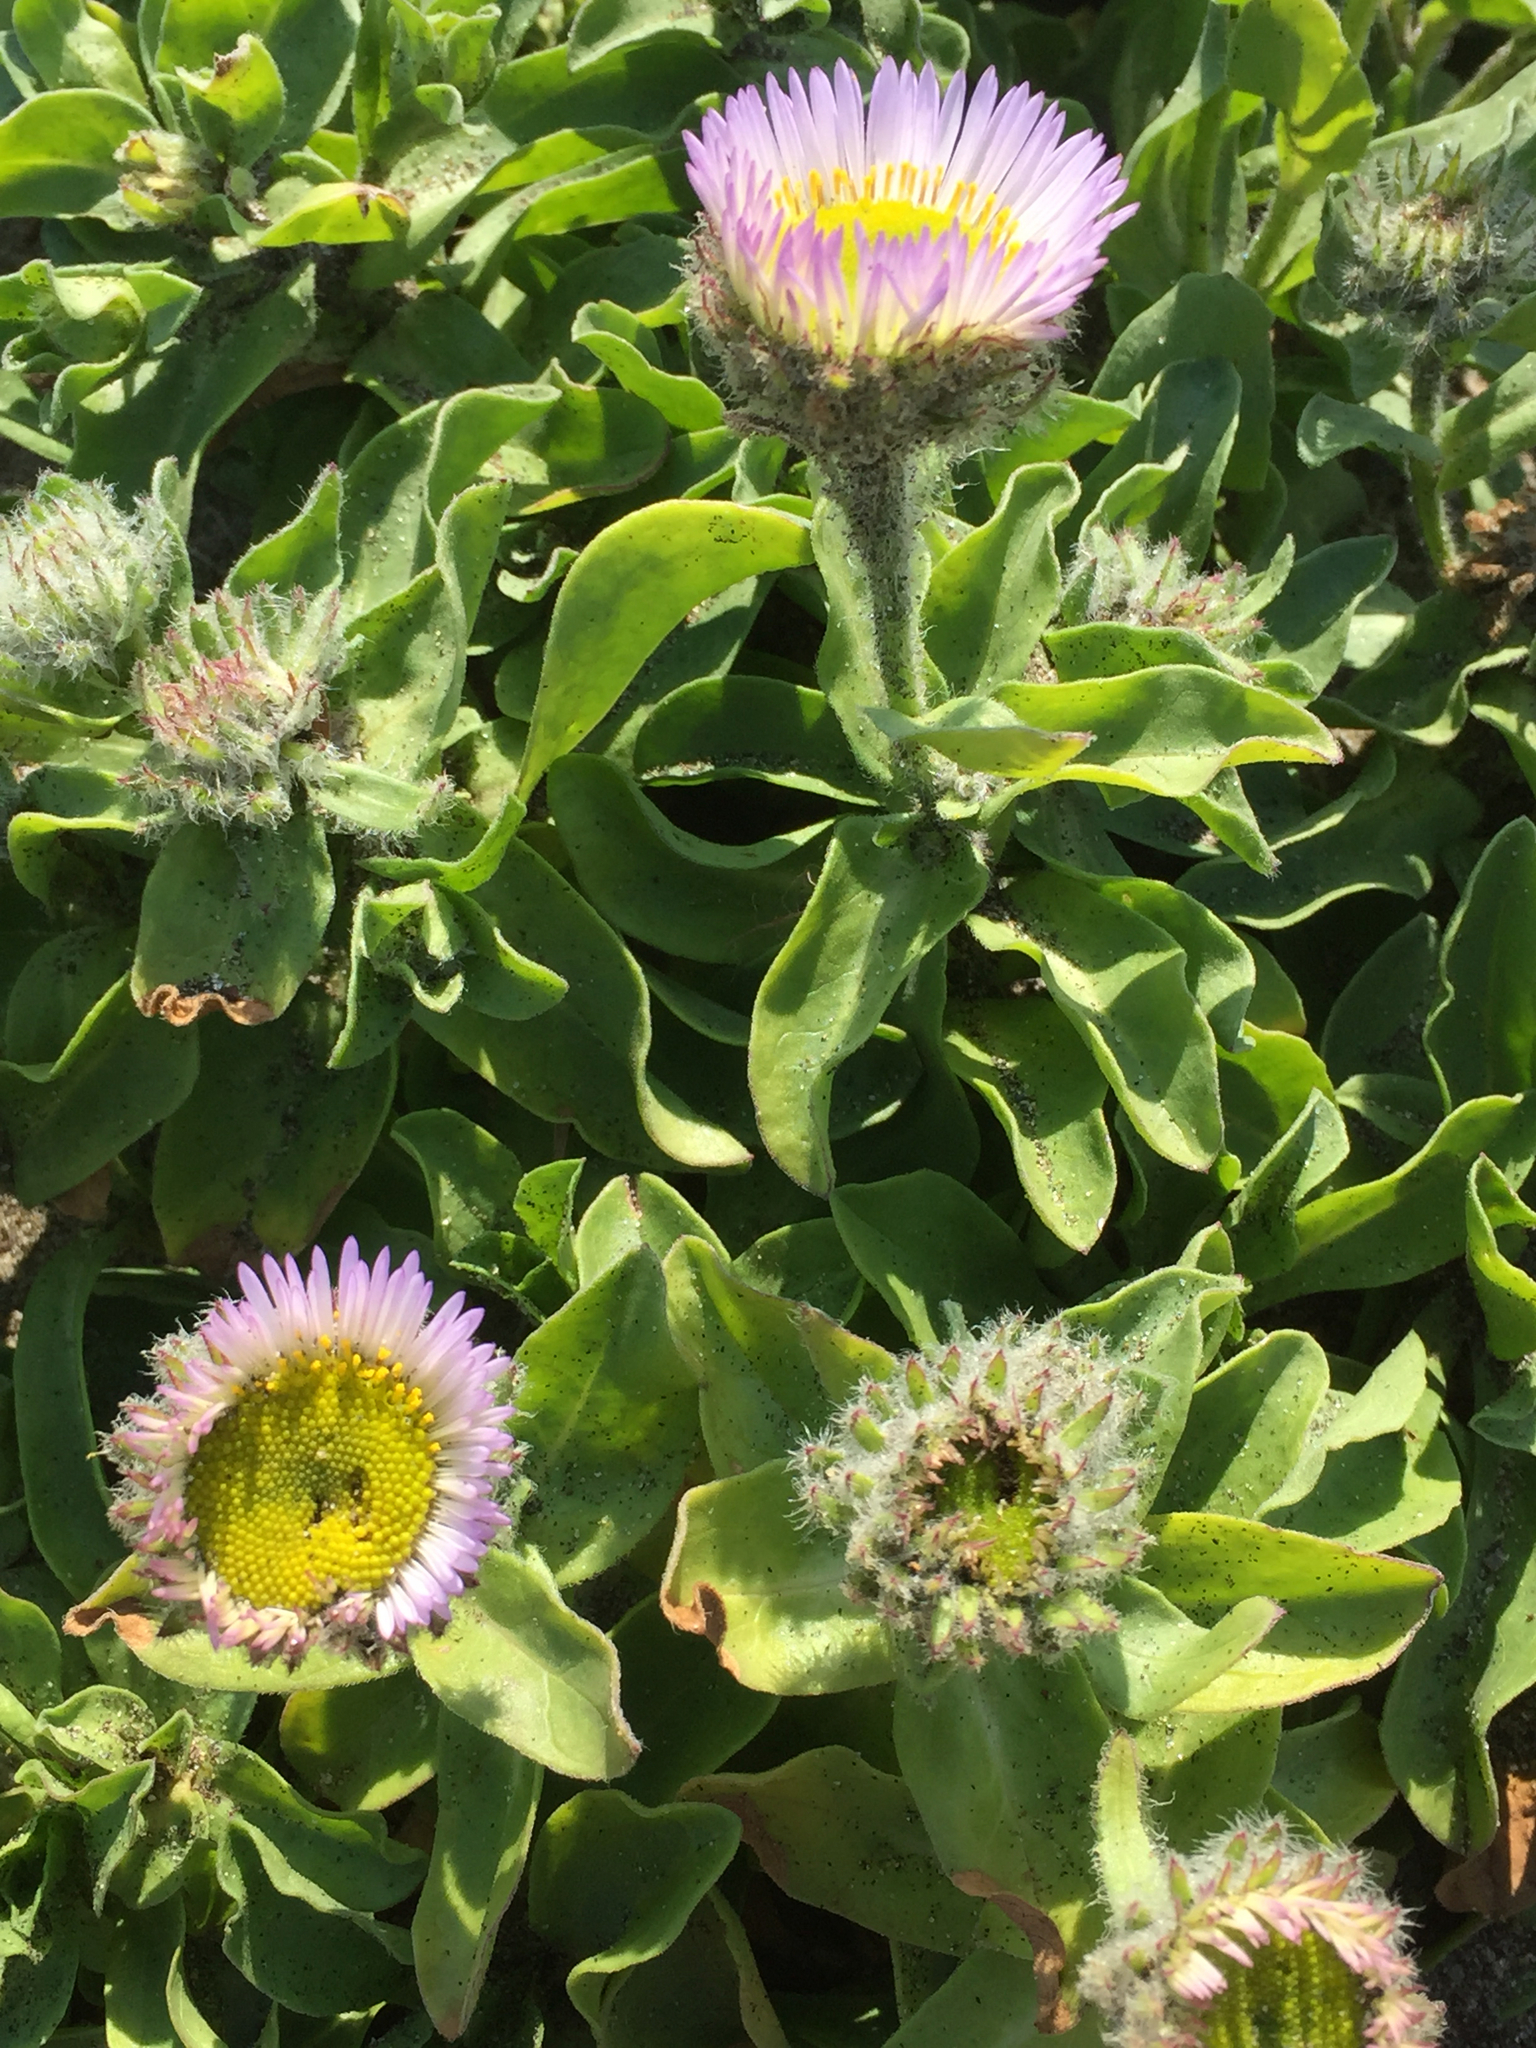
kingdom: Plantae
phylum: Tracheophyta
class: Magnoliopsida
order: Asterales
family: Asteraceae
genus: Erigeron
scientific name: Erigeron glaucus
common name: Seaside daisy
